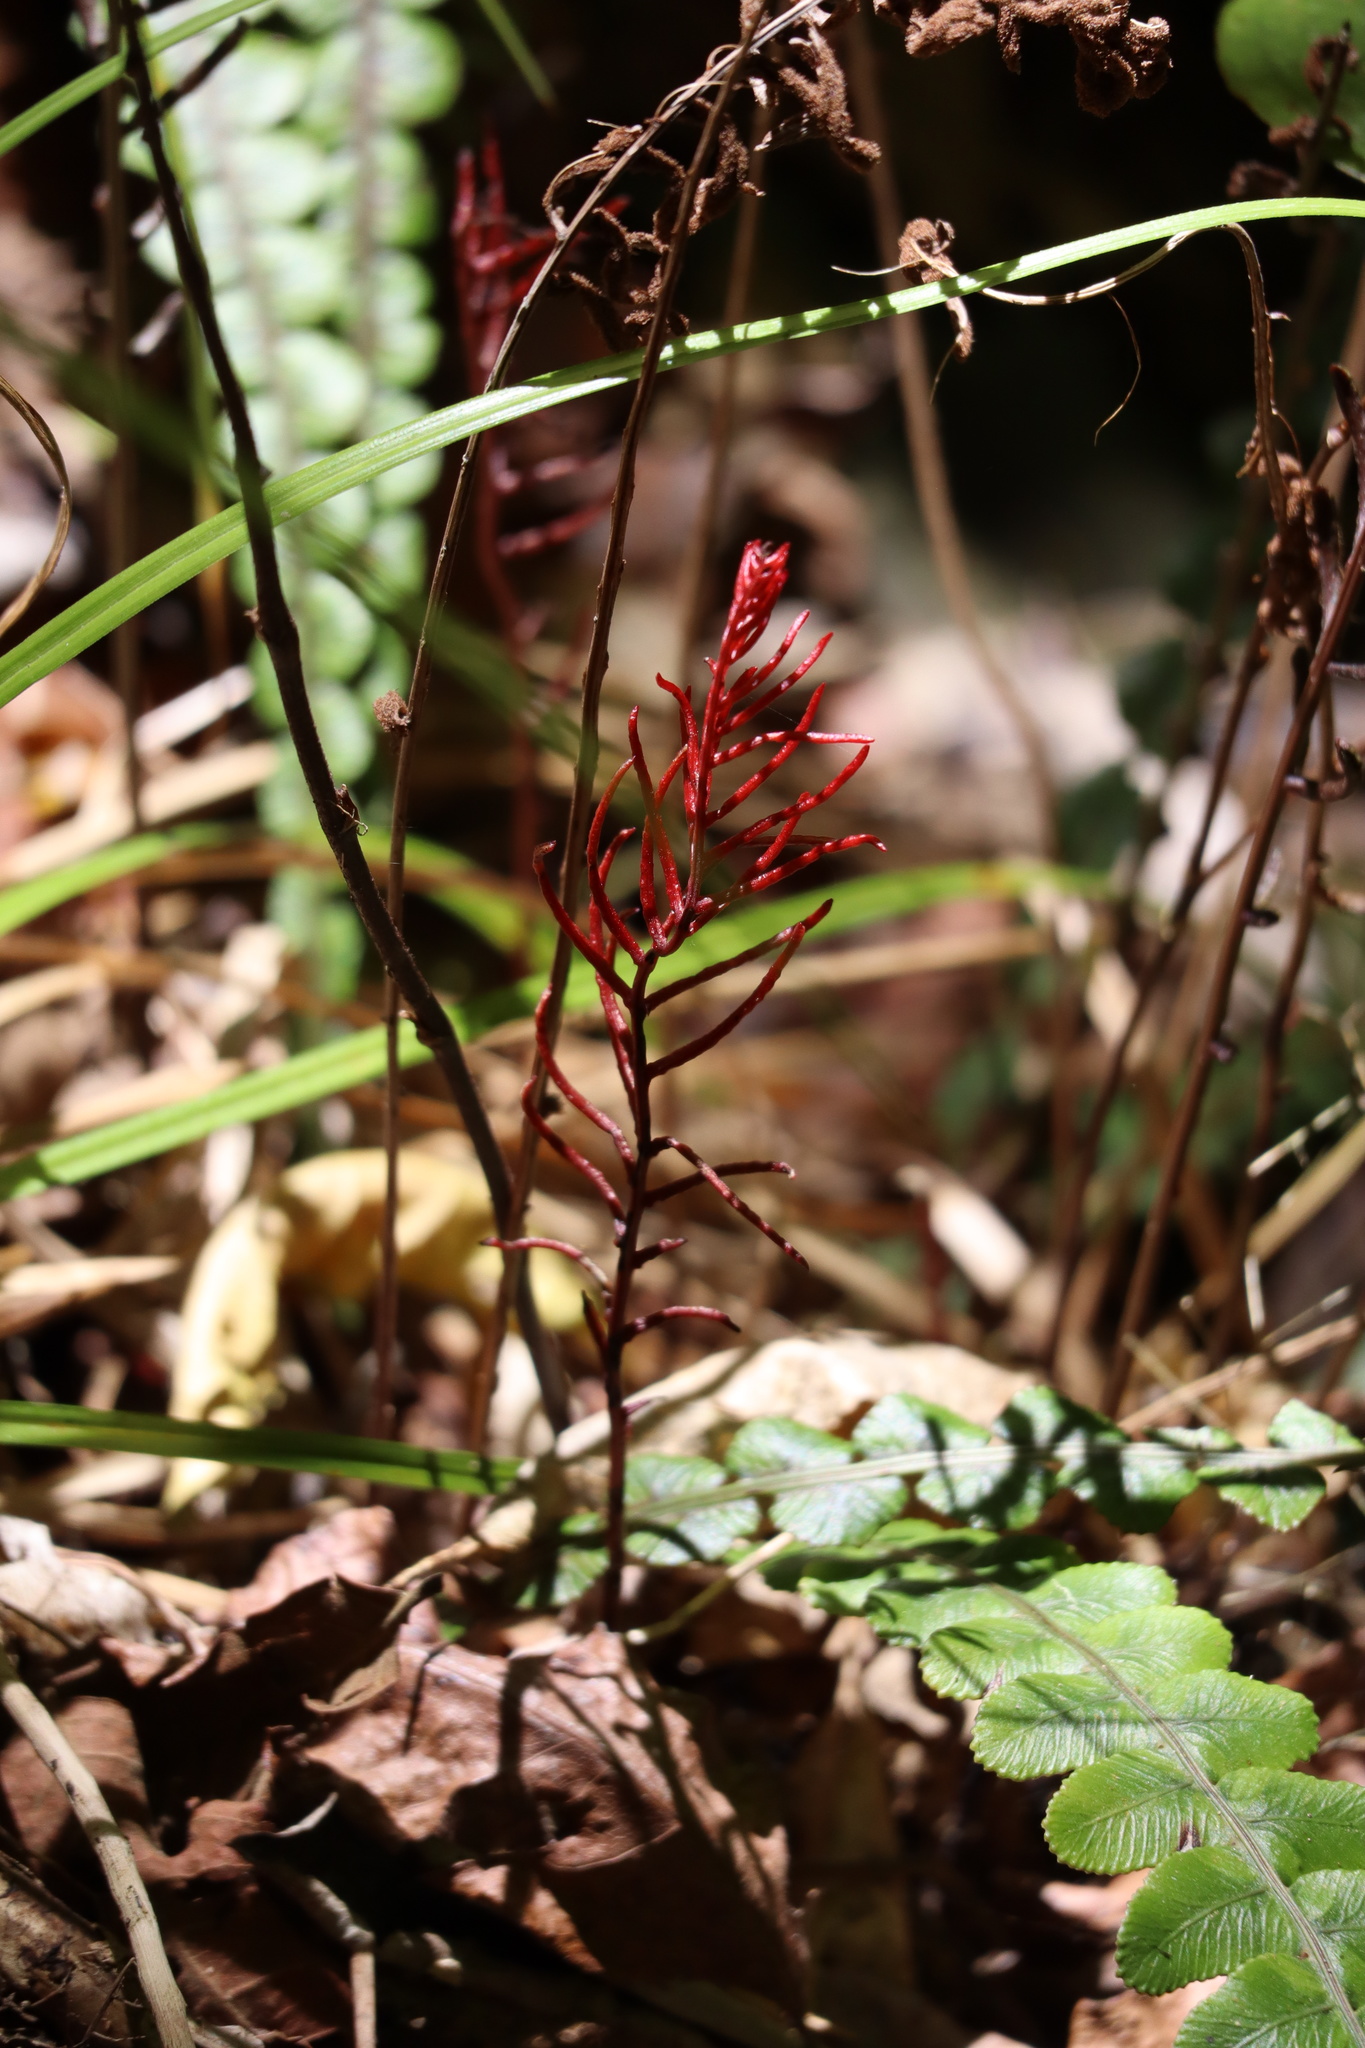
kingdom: Plantae
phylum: Tracheophyta
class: Polypodiopsida
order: Polypodiales
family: Blechnaceae
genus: Austroblechnum
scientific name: Austroblechnum membranaceum
